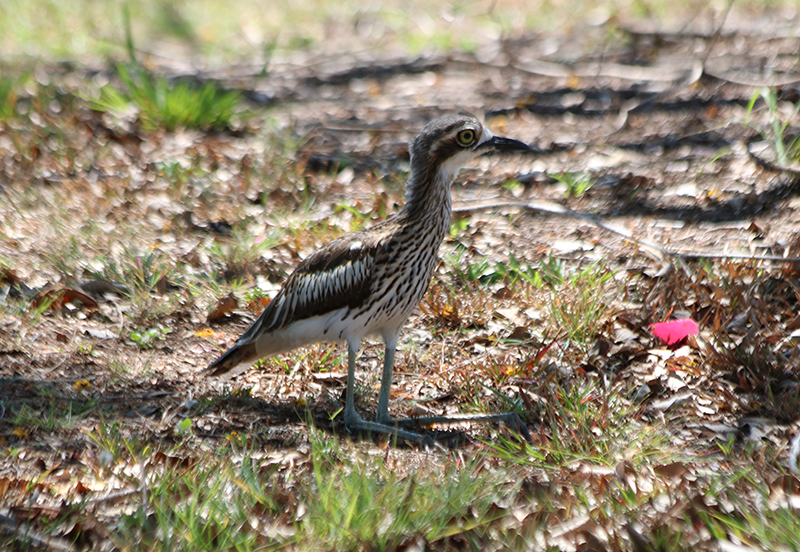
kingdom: Animalia
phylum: Chordata
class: Aves
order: Charadriiformes
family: Burhinidae
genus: Burhinus
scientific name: Burhinus grallarius
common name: Bush stone-curlew
